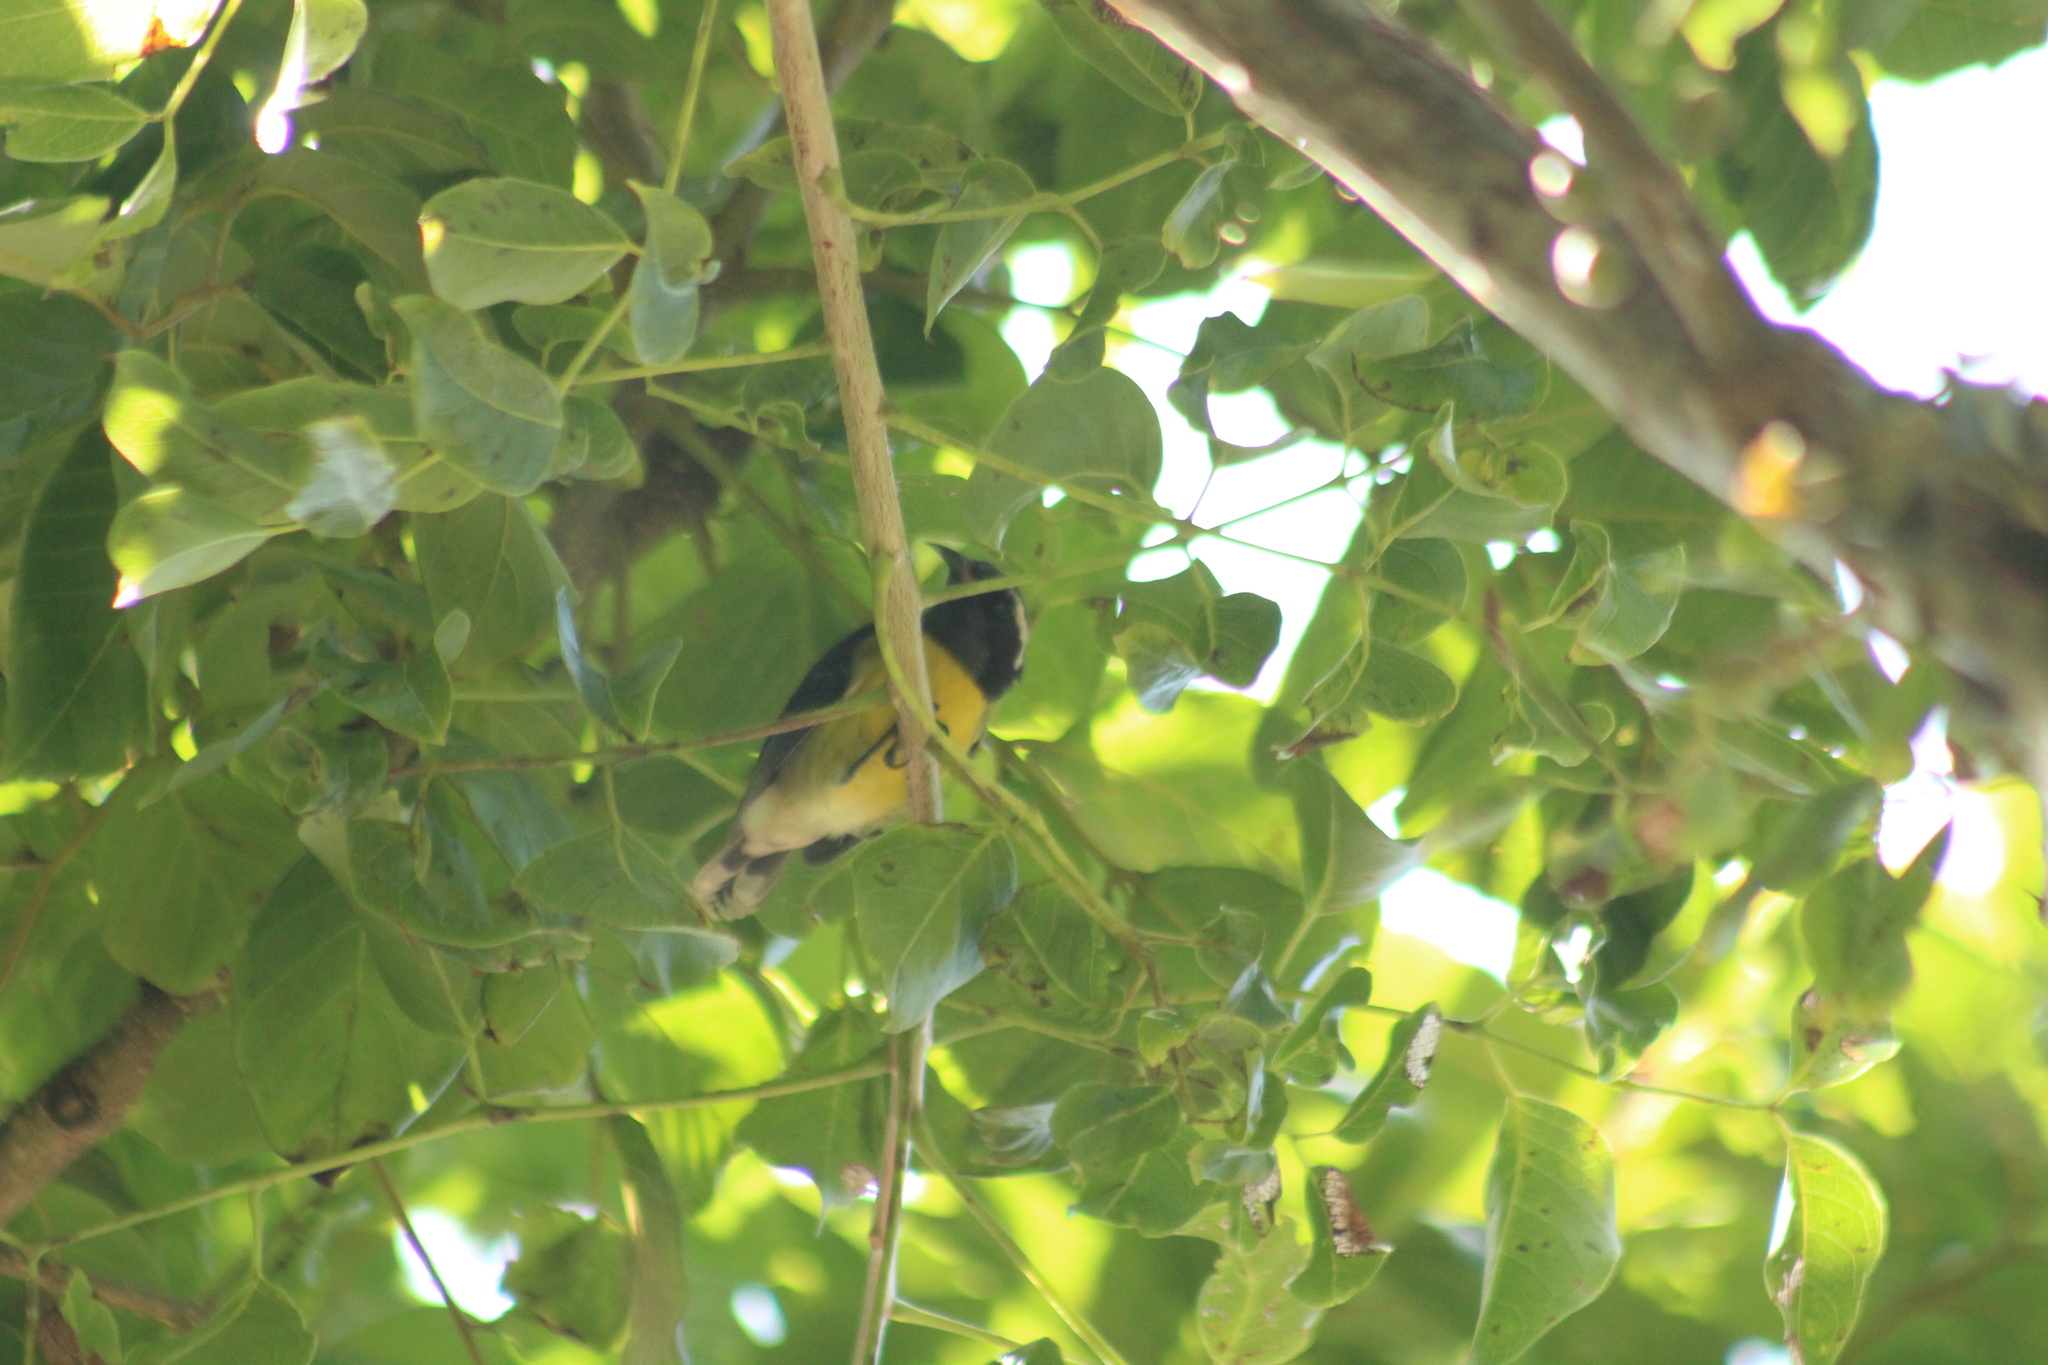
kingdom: Animalia
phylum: Chordata
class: Aves
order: Passeriformes
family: Thraupidae
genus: Coereba
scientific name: Coereba flaveola
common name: Bananaquit
